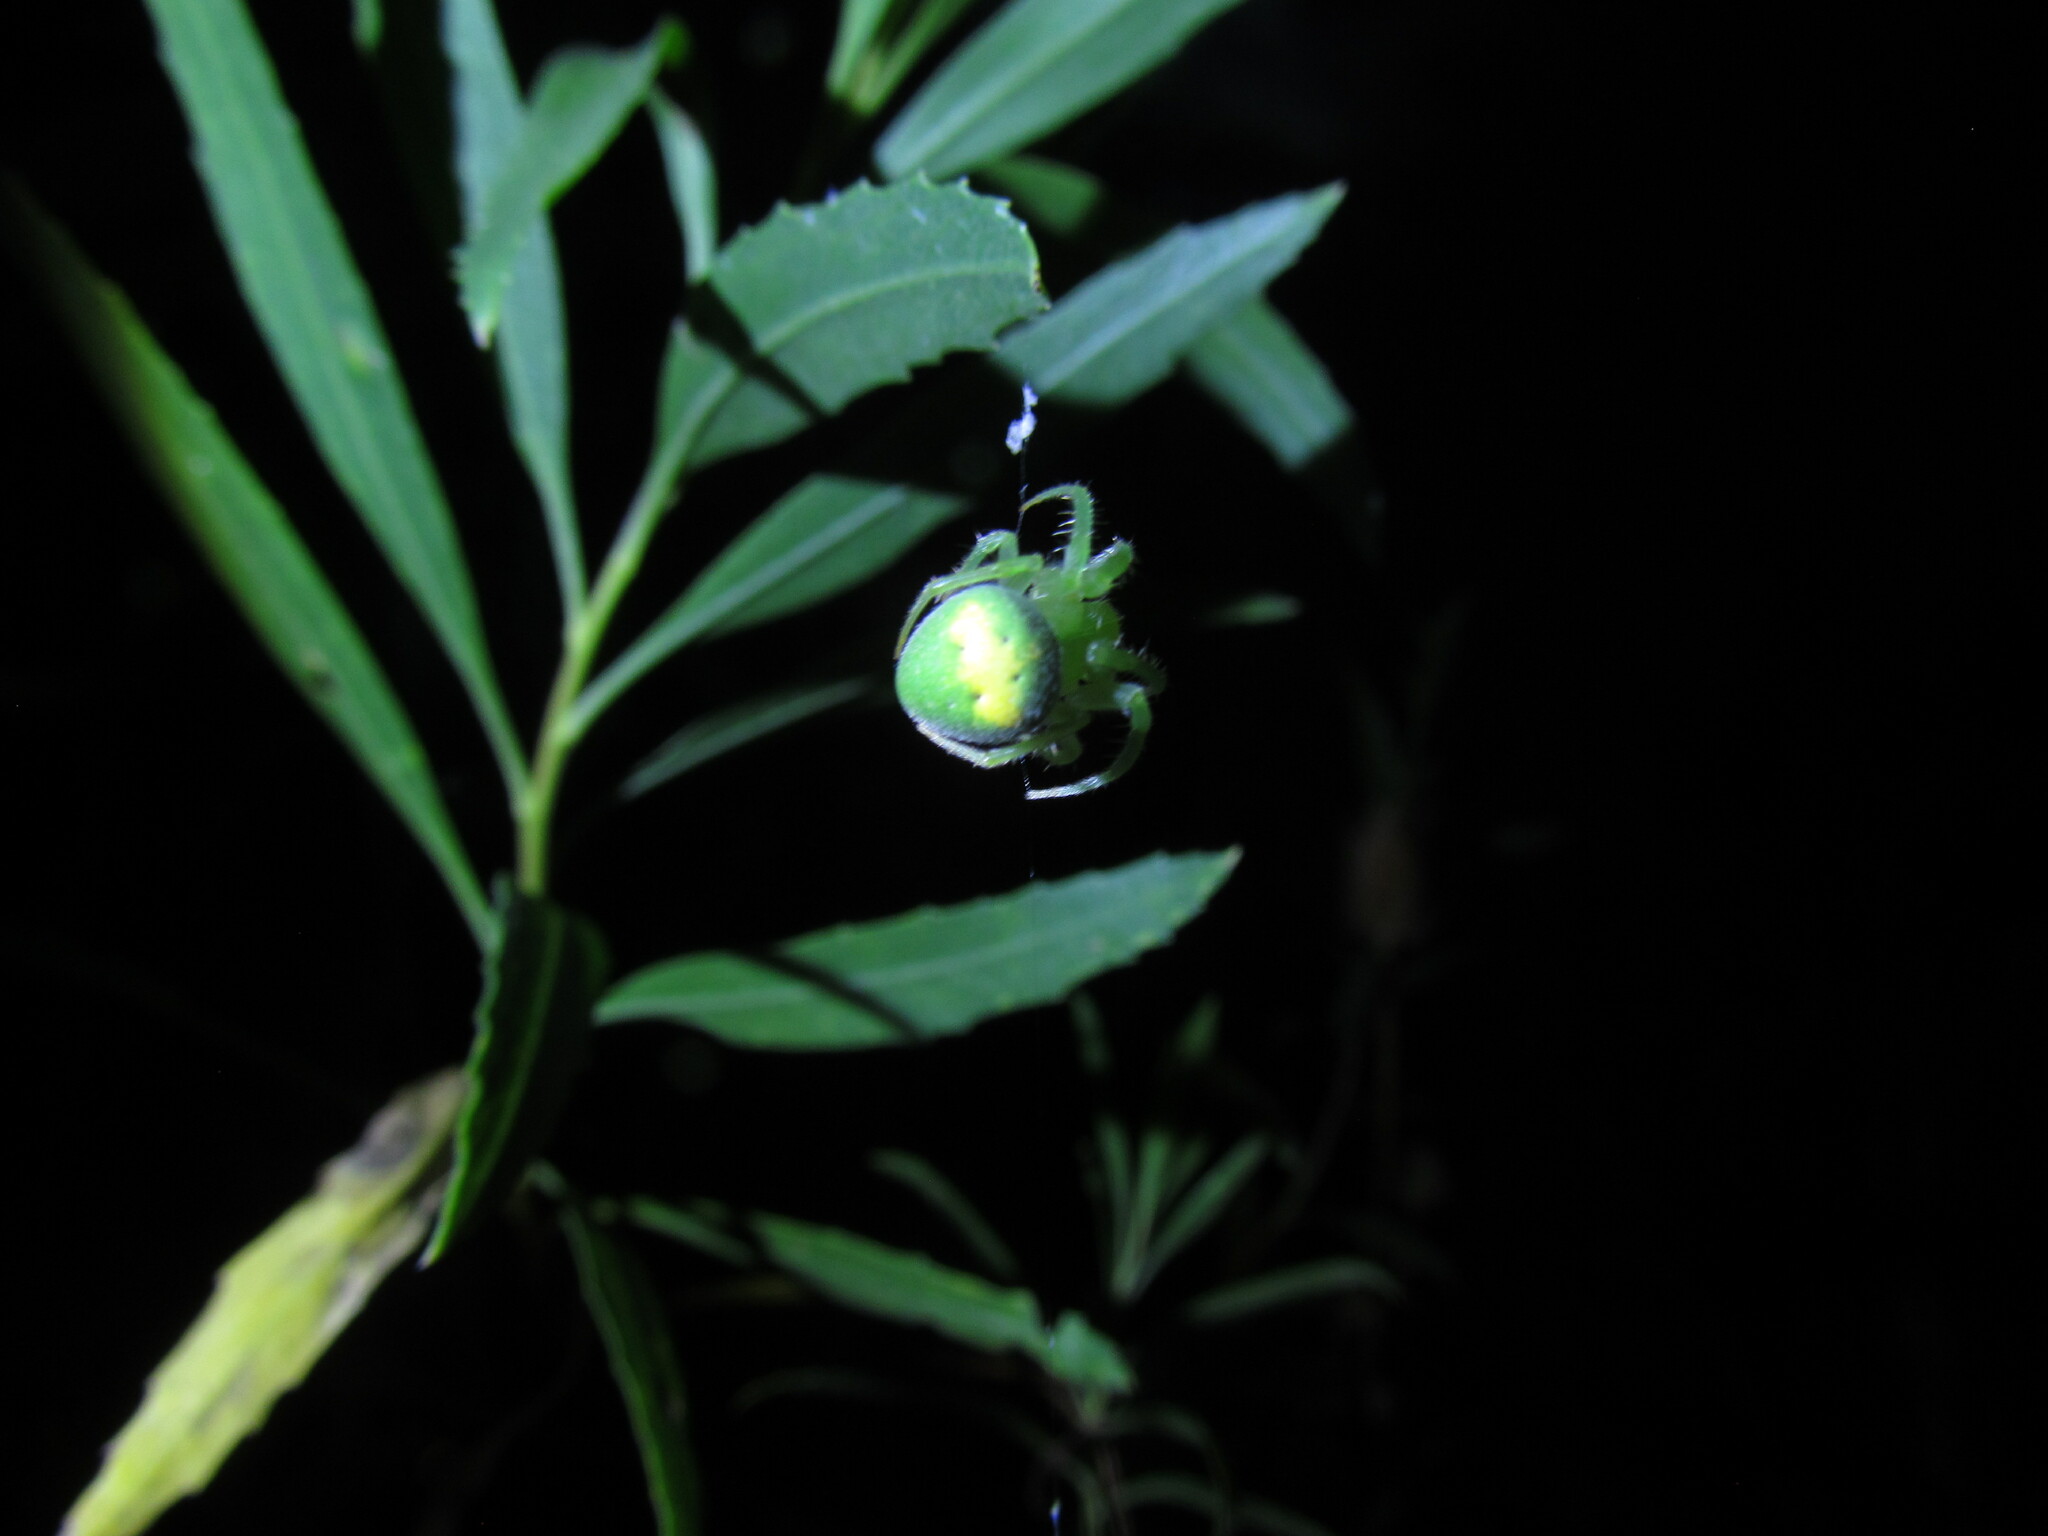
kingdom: Animalia
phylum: Arthropoda
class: Arachnida
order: Araneae
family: Araneidae
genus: Araneus
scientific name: Araneus uniformis
